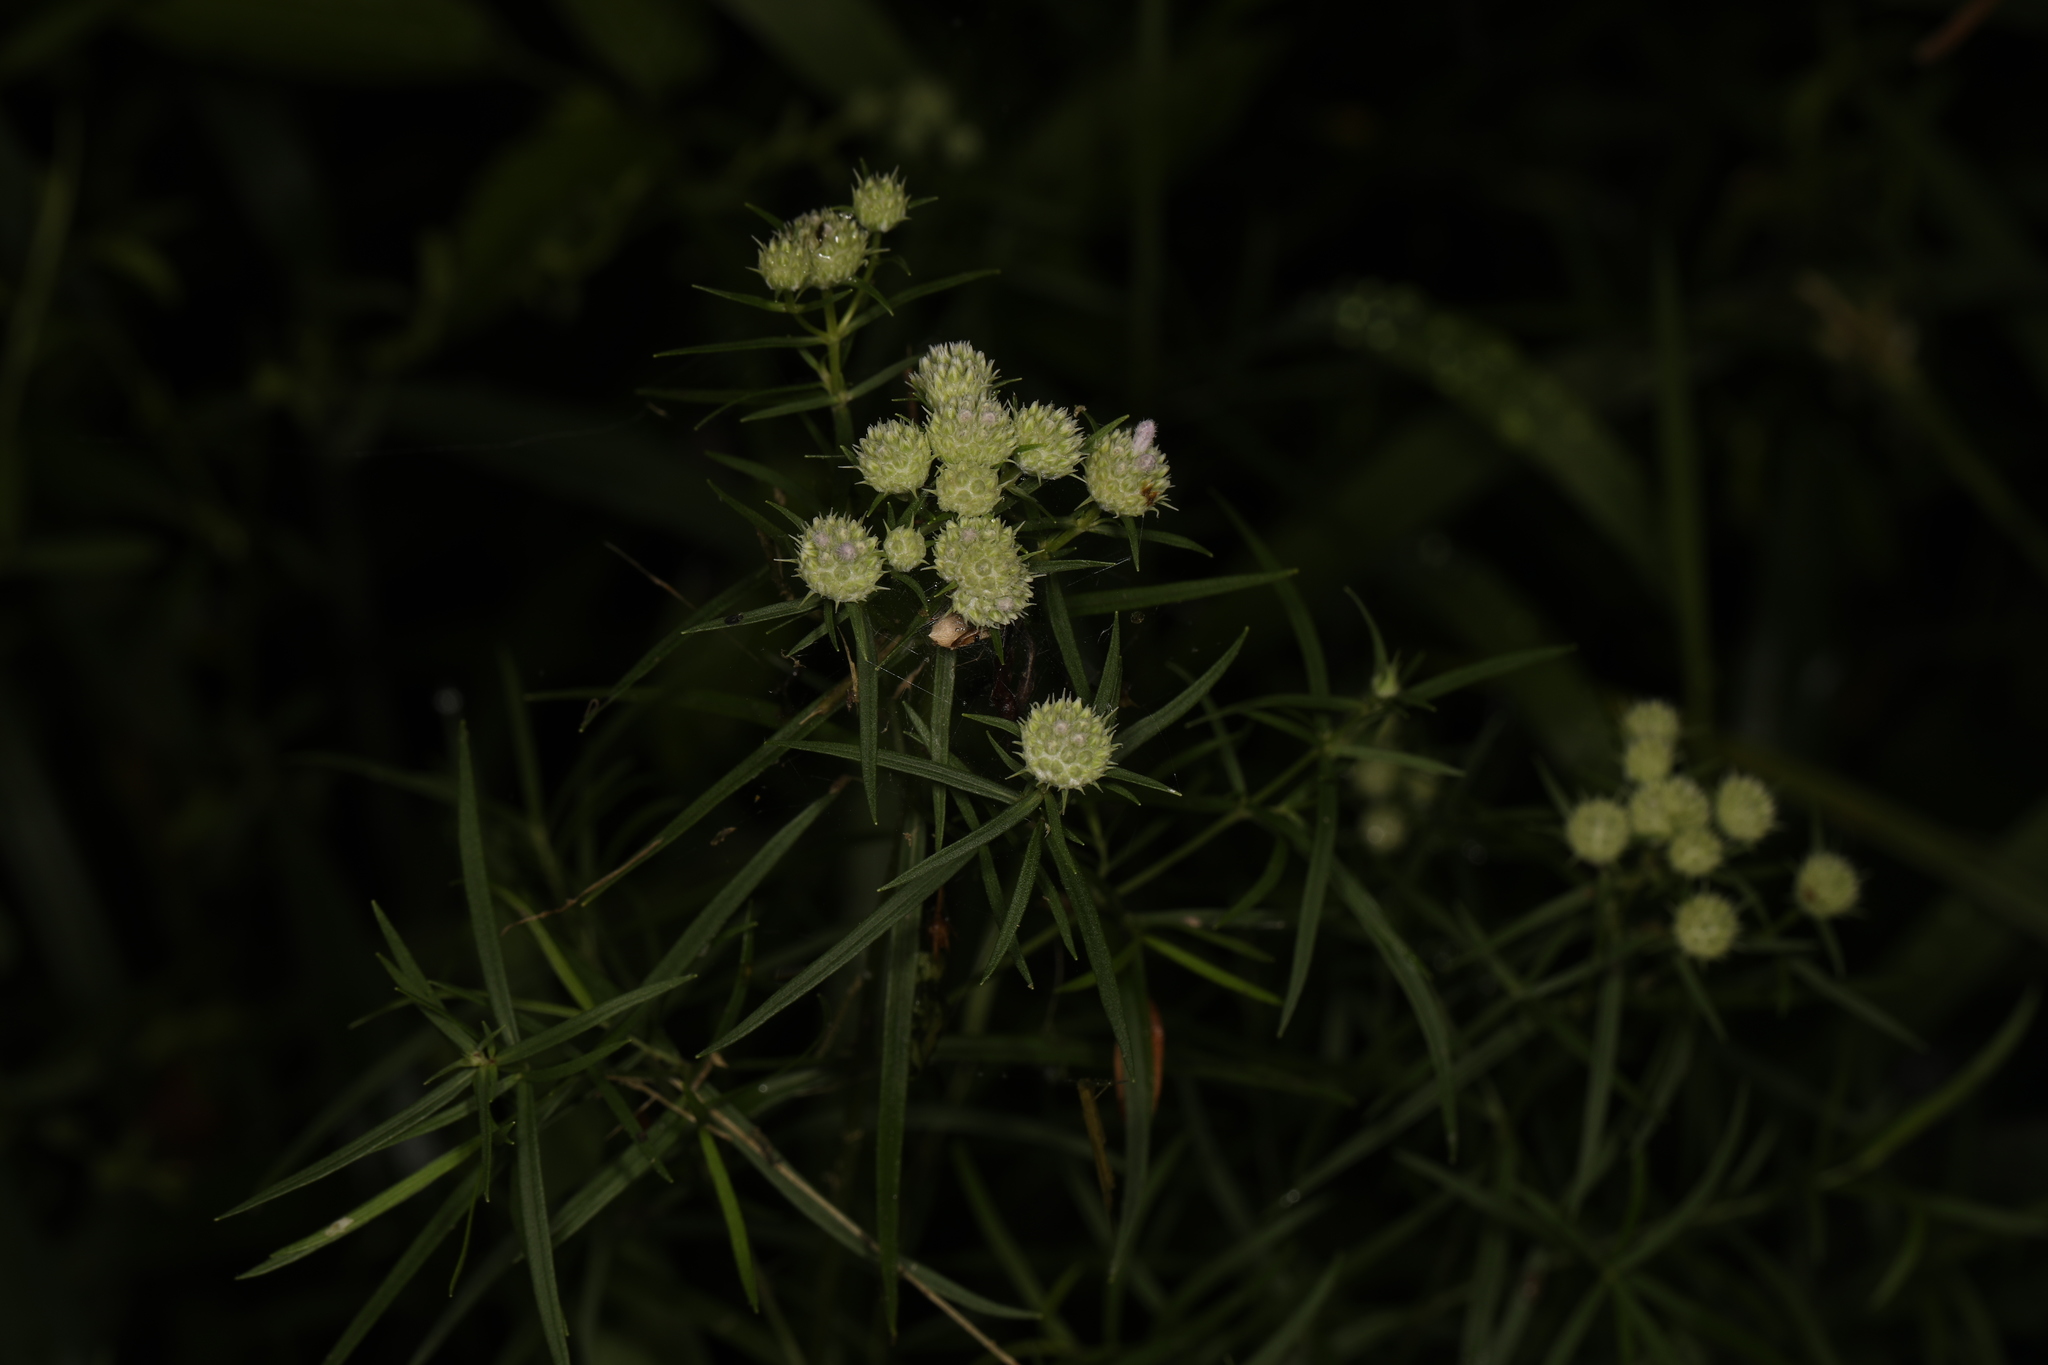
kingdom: Plantae
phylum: Tracheophyta
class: Magnoliopsida
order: Lamiales
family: Lamiaceae
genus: Pycnanthemum
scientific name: Pycnanthemum tenuifolium
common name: Narrow-leaf mountain-mint
